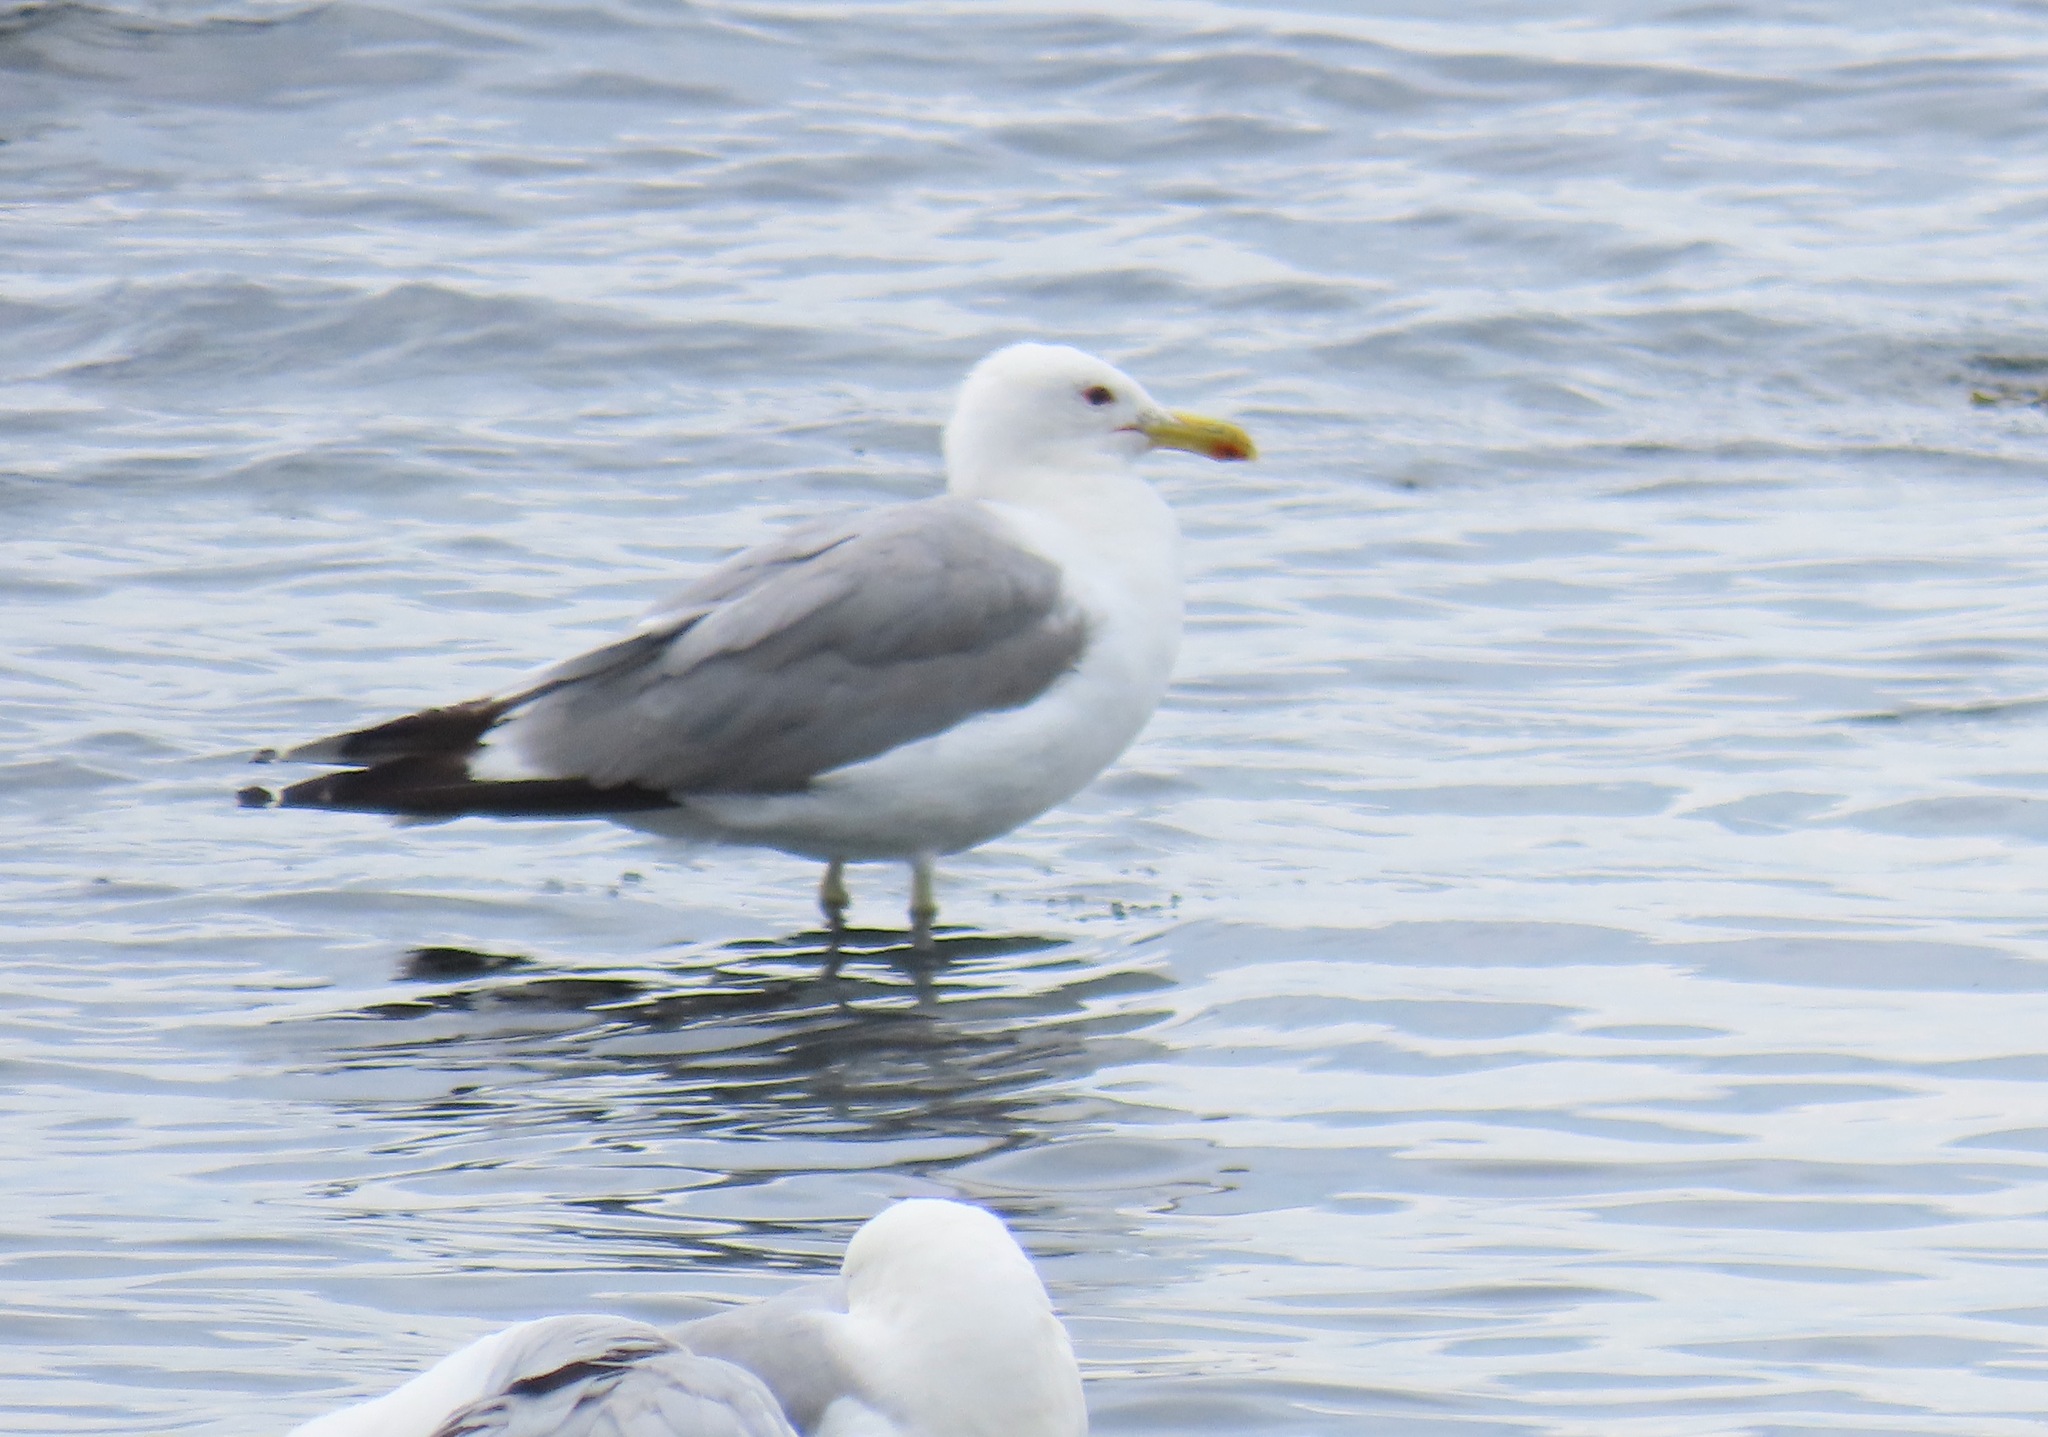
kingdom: Animalia
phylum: Chordata
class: Aves
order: Charadriiformes
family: Laridae
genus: Larus
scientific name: Larus californicus
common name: California gull
